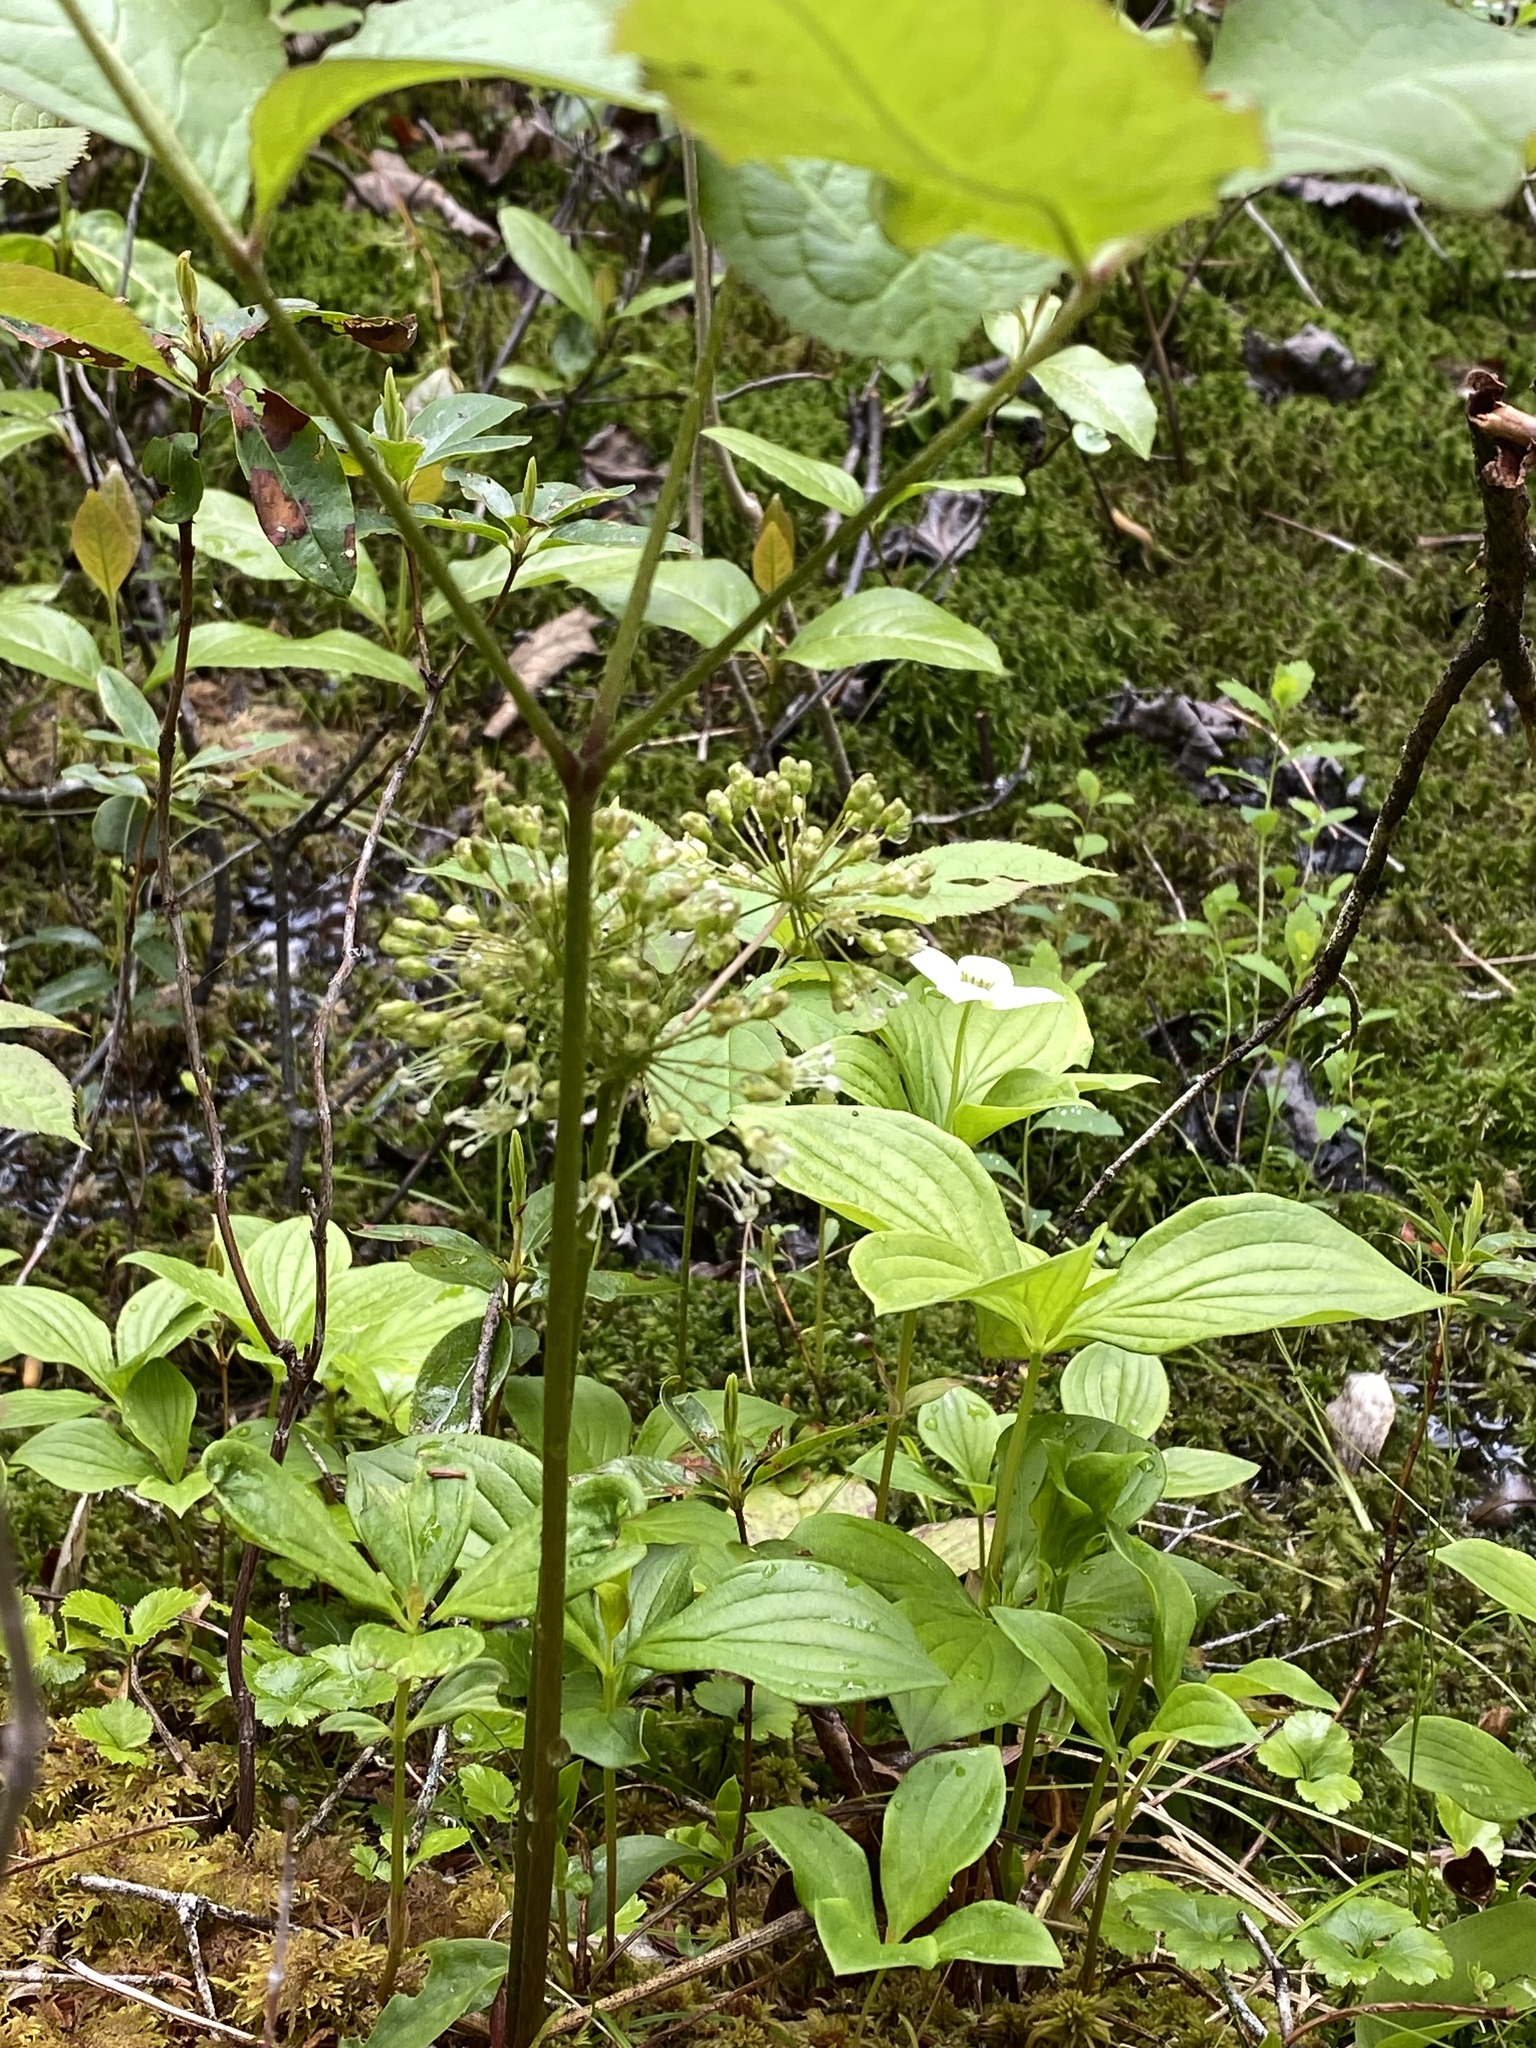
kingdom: Plantae
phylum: Tracheophyta
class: Magnoliopsida
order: Apiales
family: Araliaceae
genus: Aralia
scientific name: Aralia nudicaulis
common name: Wild sarsaparilla
